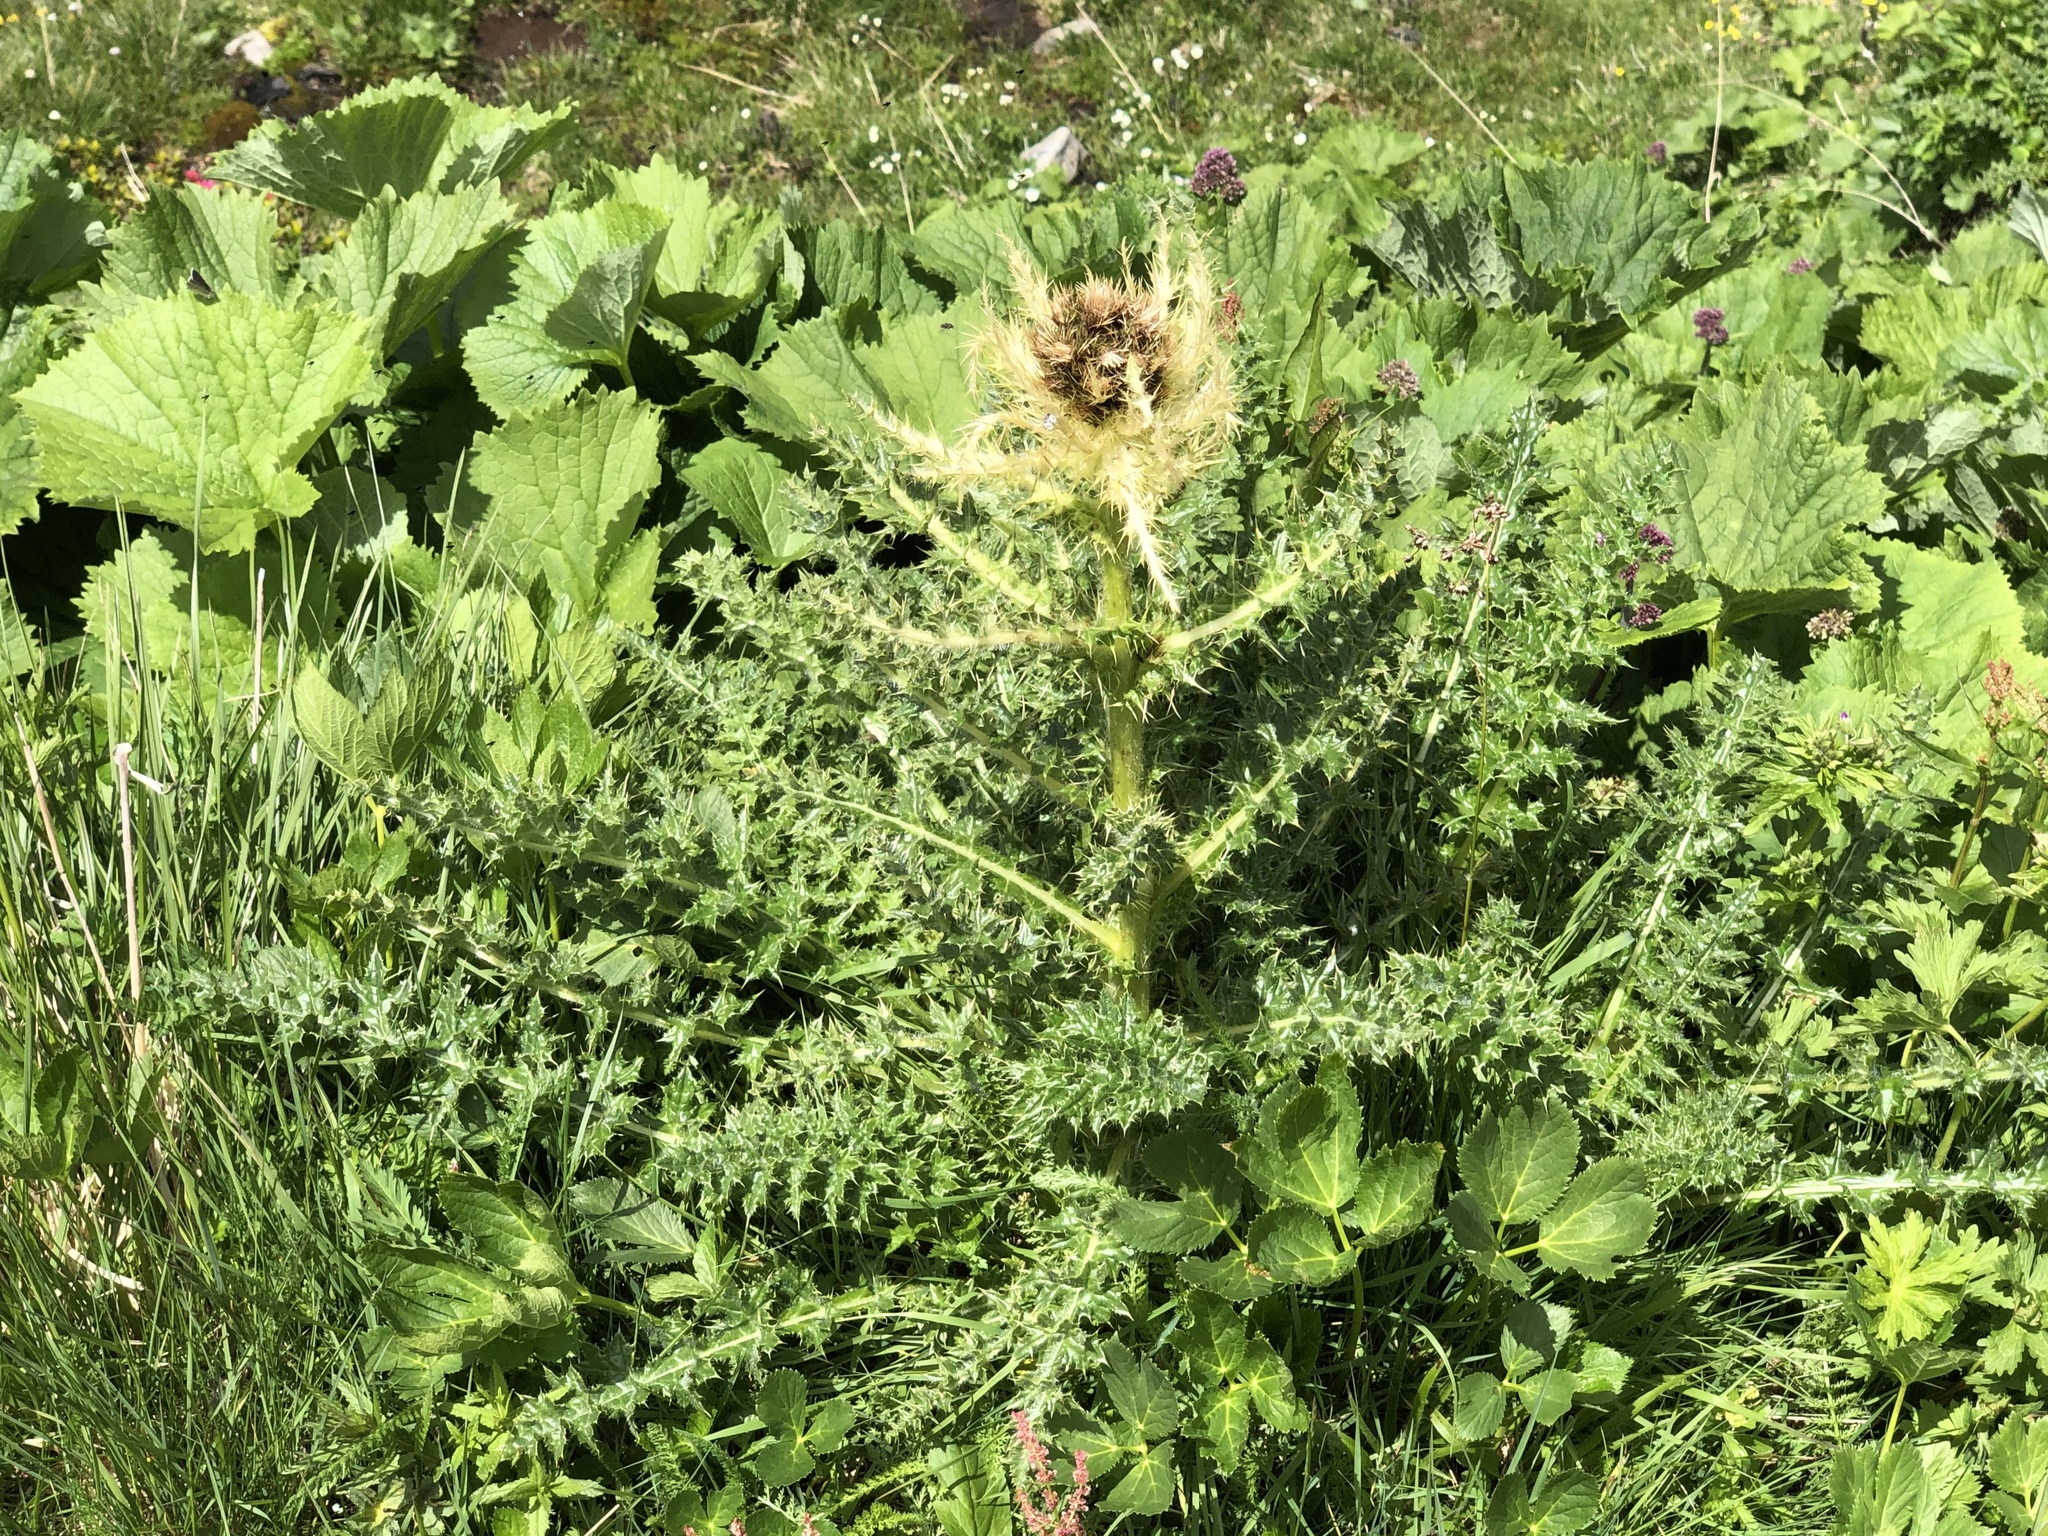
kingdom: Plantae
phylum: Tracheophyta
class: Magnoliopsida
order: Asterales
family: Asteraceae
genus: Cirsium
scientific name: Cirsium spinosissimum
